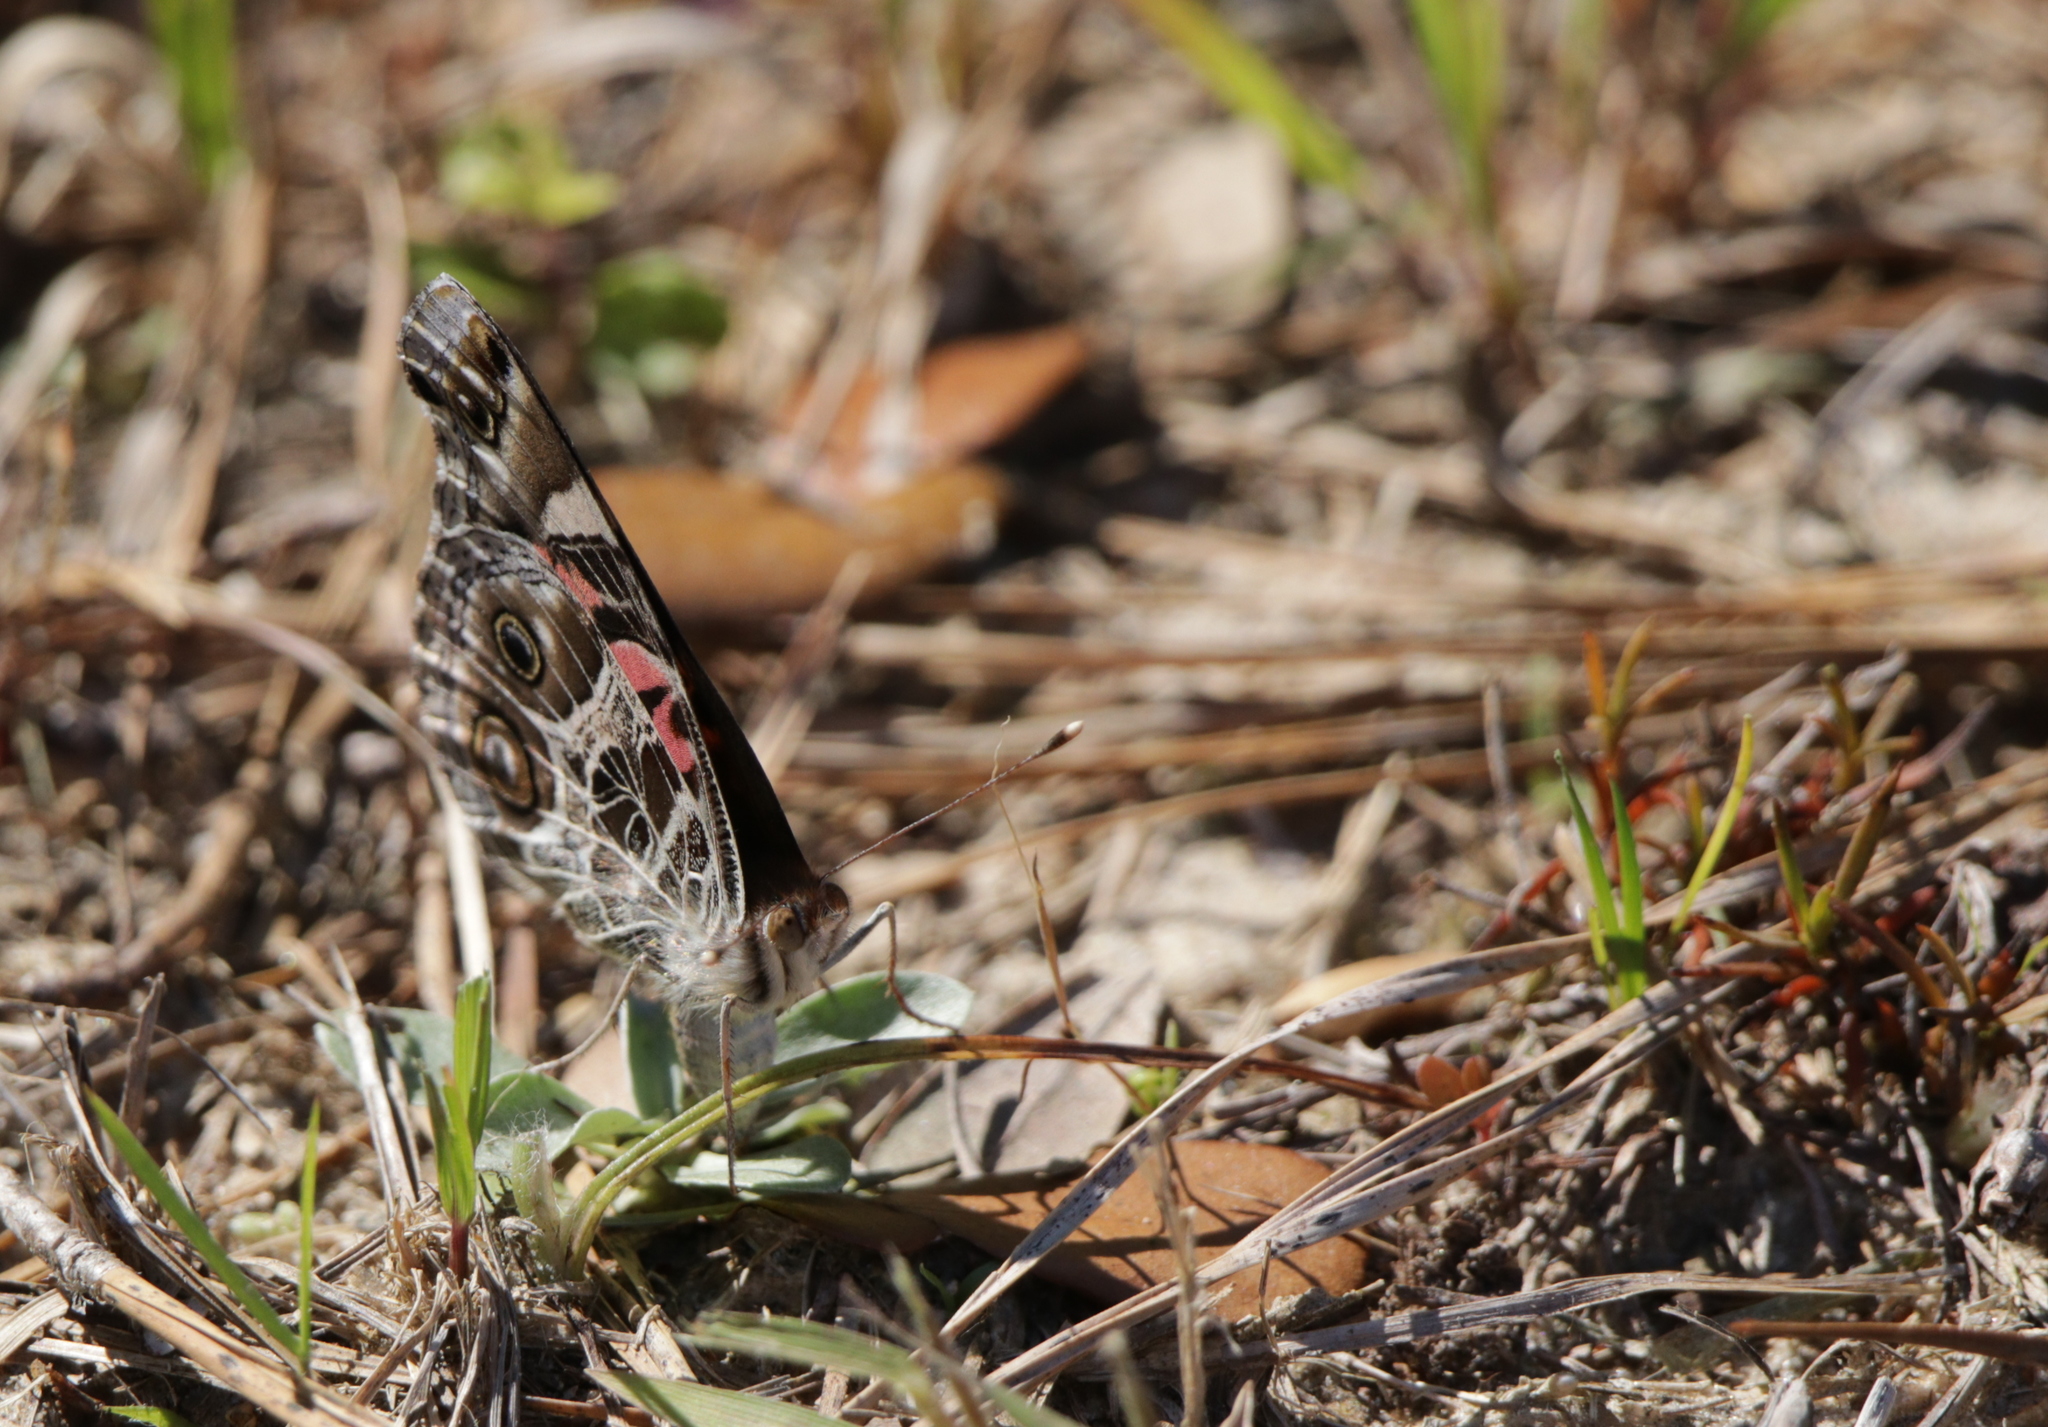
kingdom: Animalia
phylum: Arthropoda
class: Insecta
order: Lepidoptera
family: Nymphalidae
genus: Vanessa
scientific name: Vanessa virginiensis
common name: American lady
